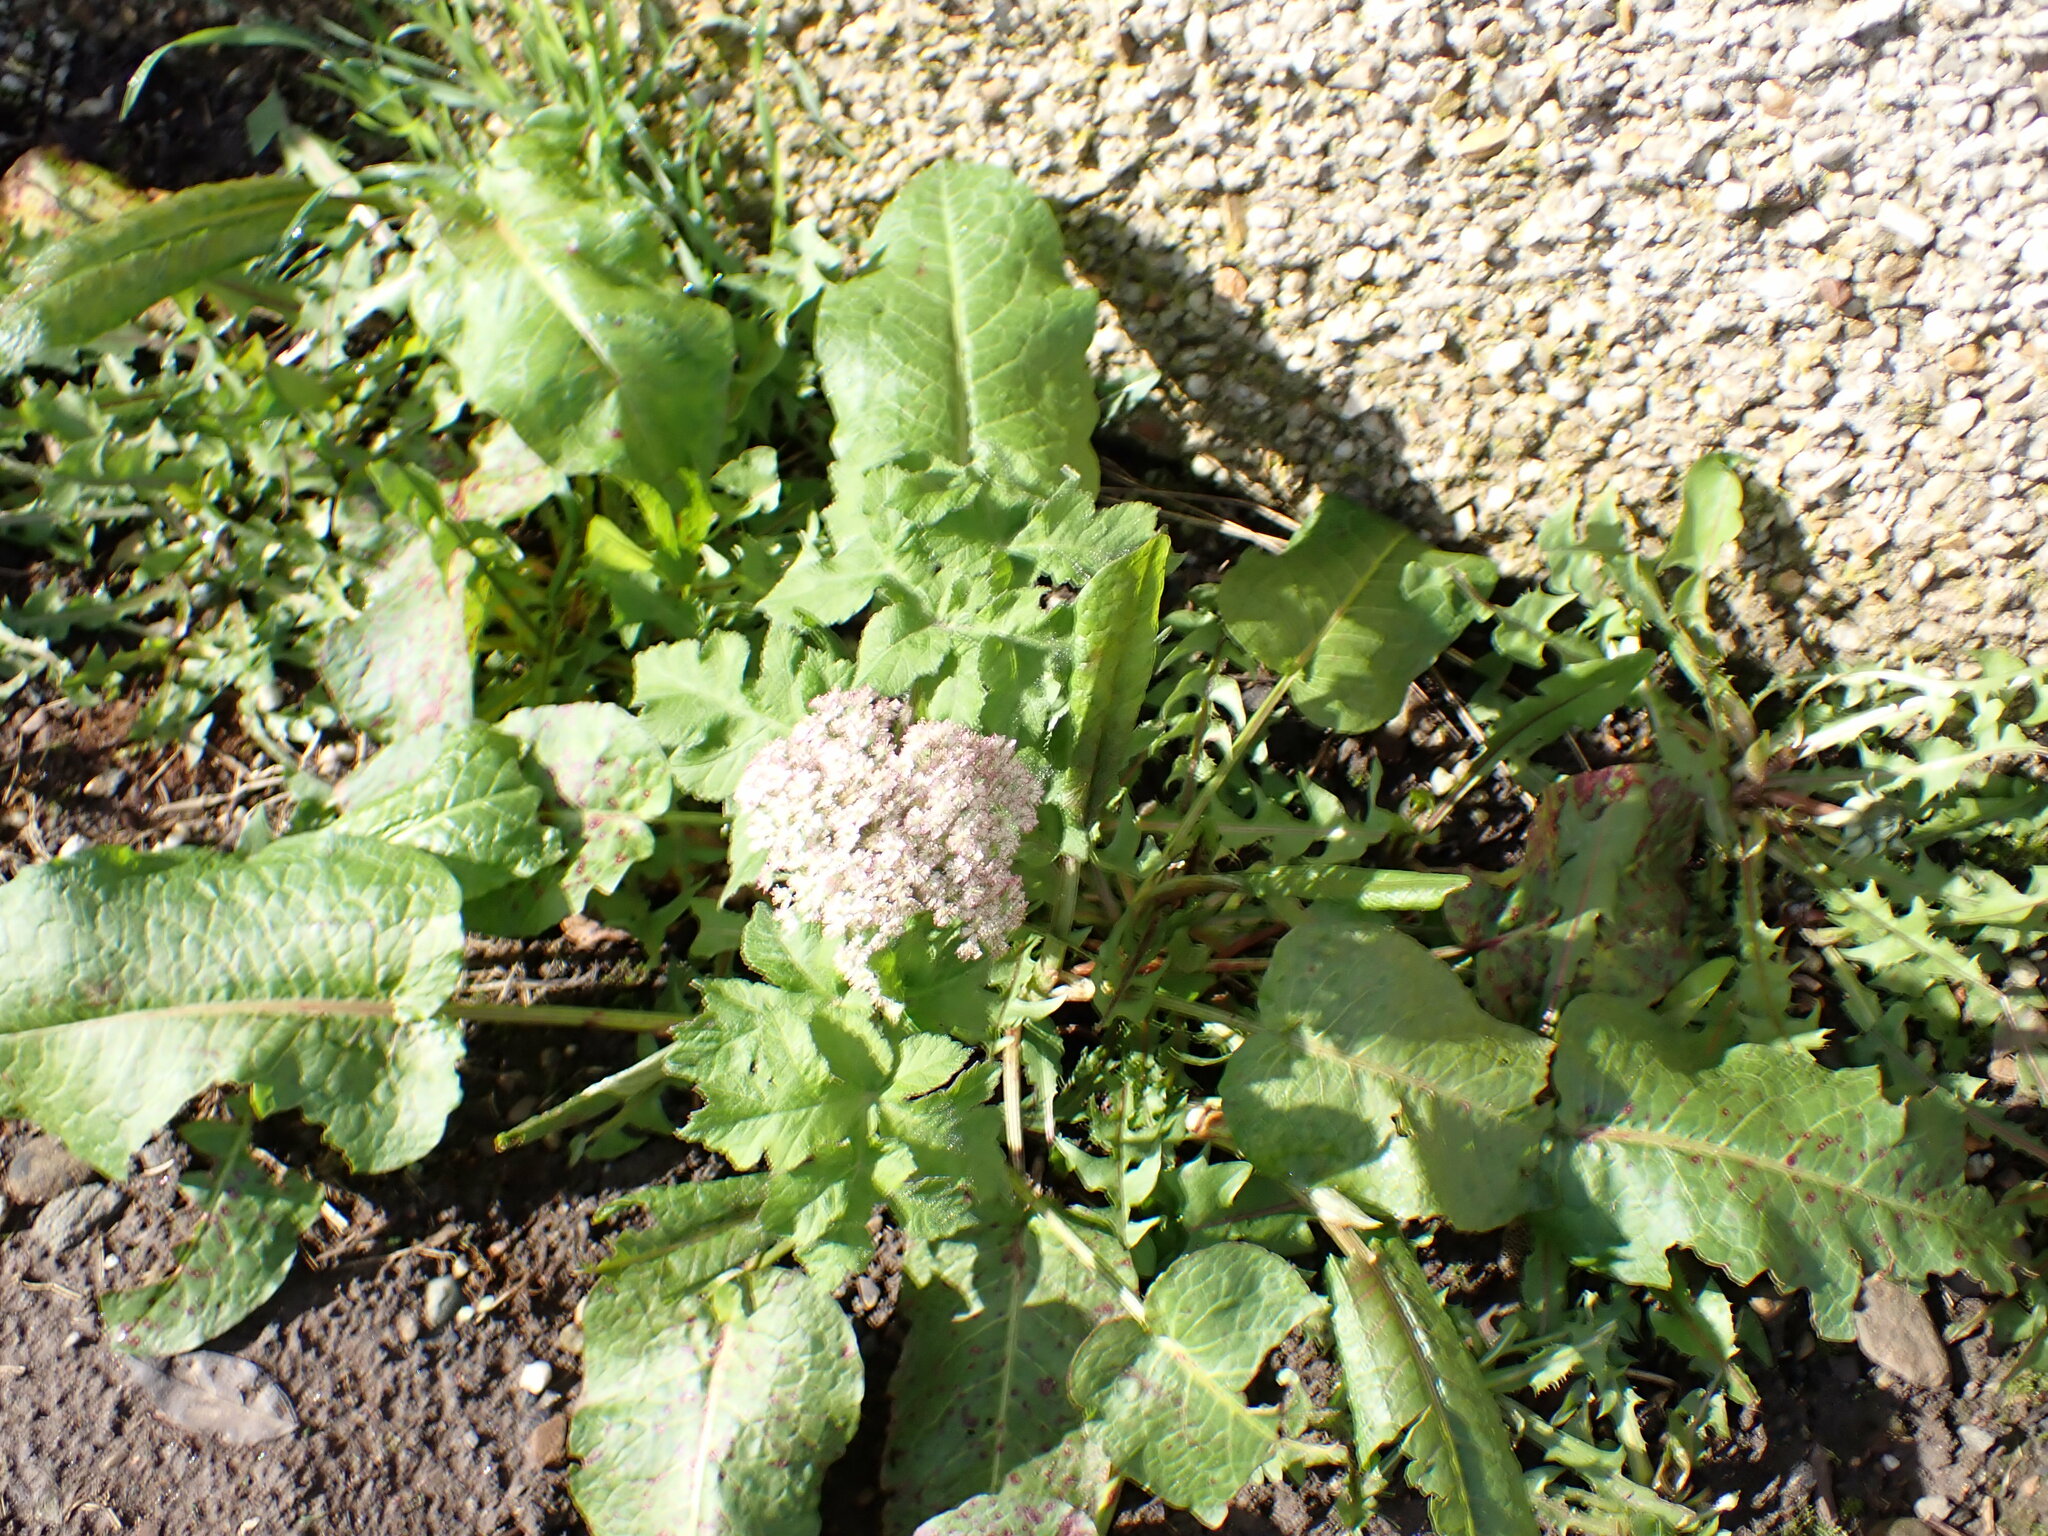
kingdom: Plantae
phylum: Tracheophyta
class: Magnoliopsida
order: Apiales
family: Apiaceae
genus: Heracleum
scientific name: Heracleum sphondylium
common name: Hogweed
